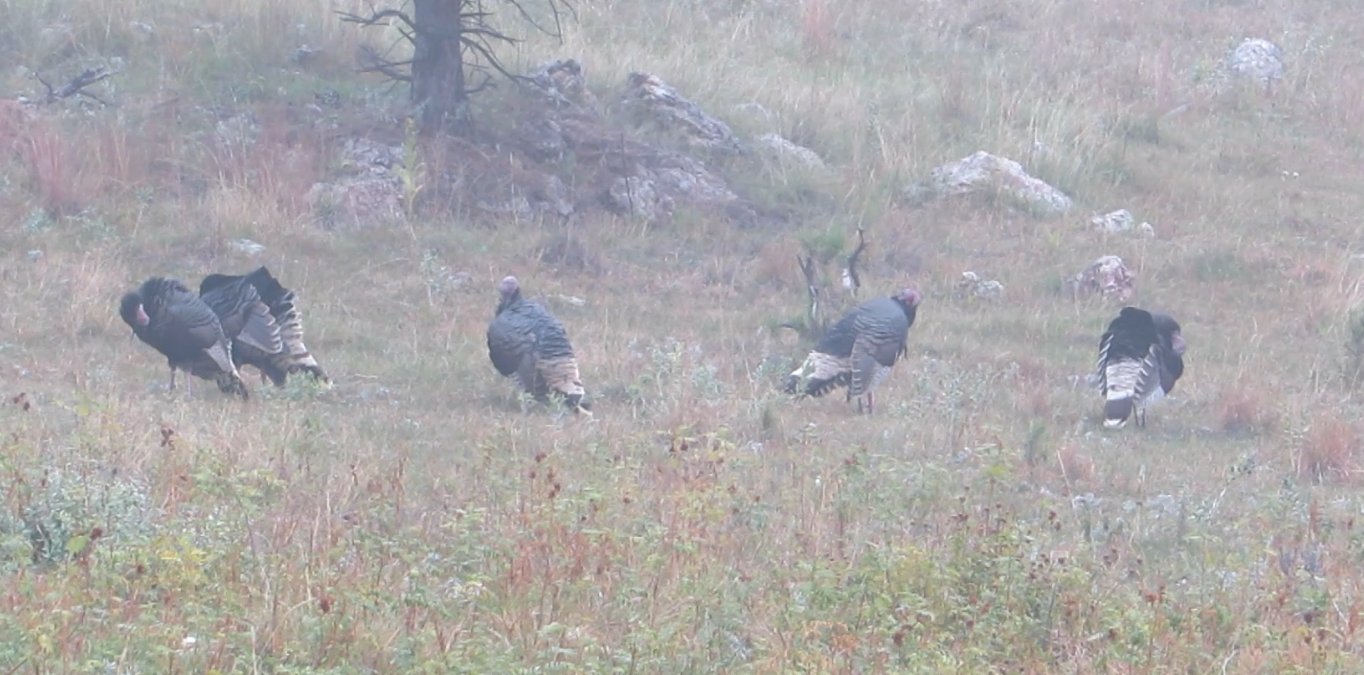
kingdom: Animalia
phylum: Chordata
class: Aves
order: Galliformes
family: Phasianidae
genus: Meleagris
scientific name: Meleagris gallopavo
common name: Wild turkey
